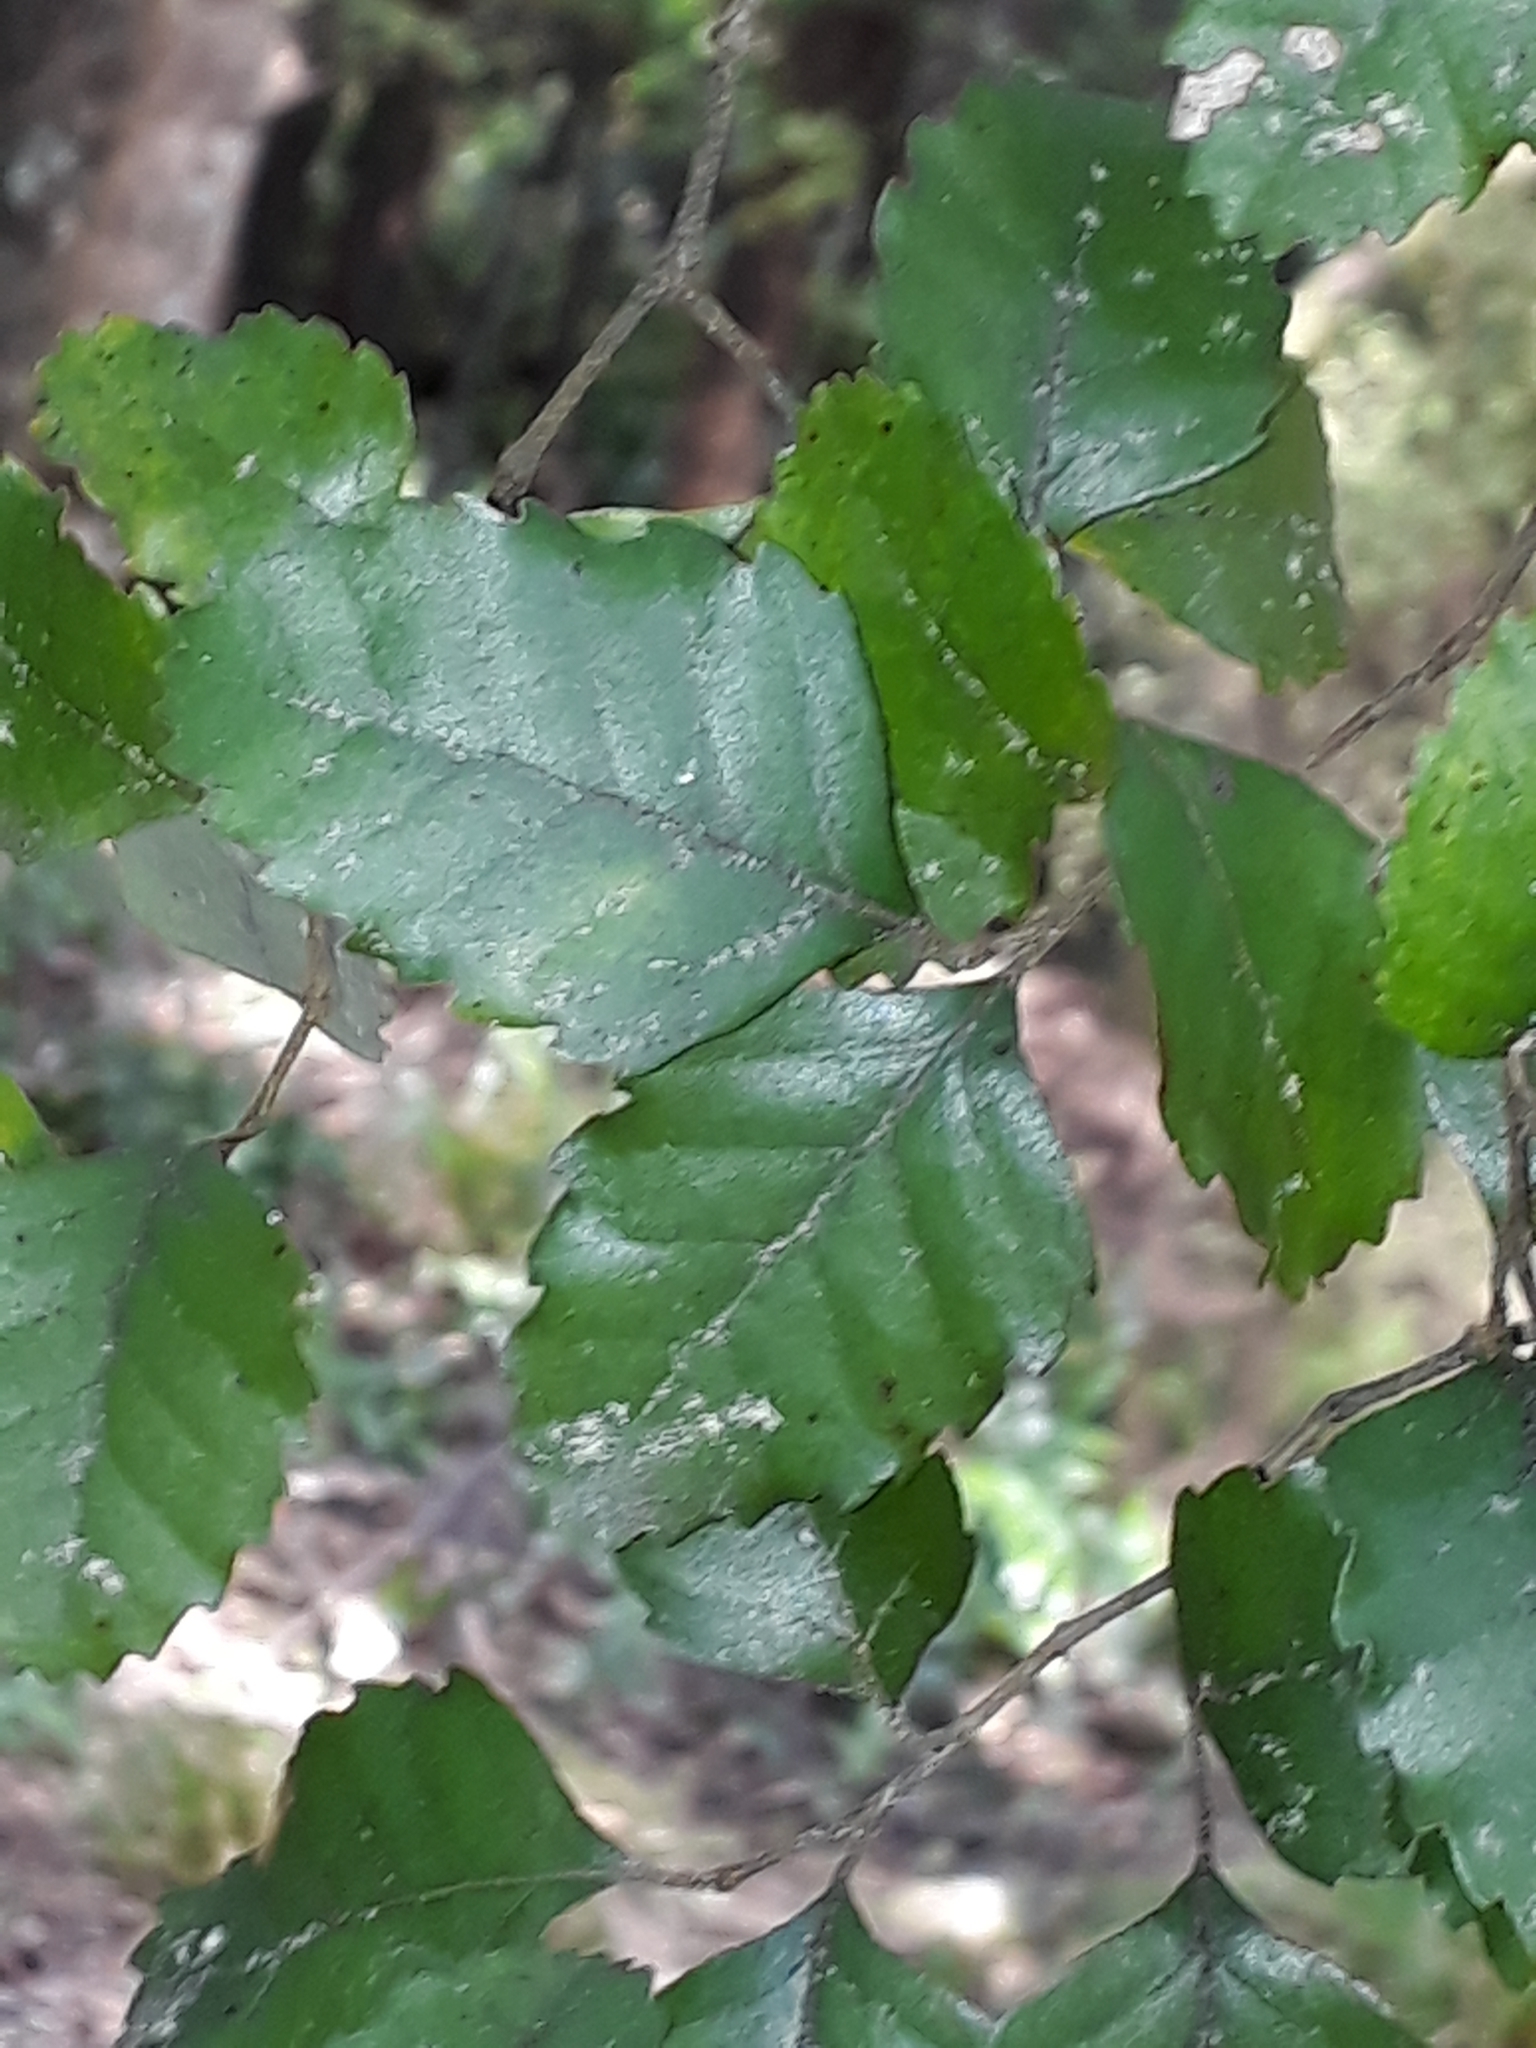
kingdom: Plantae
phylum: Tracheophyta
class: Magnoliopsida
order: Fagales
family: Nothofagaceae
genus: Nothofagus
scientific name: Nothofagus truncata
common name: Hard beech
